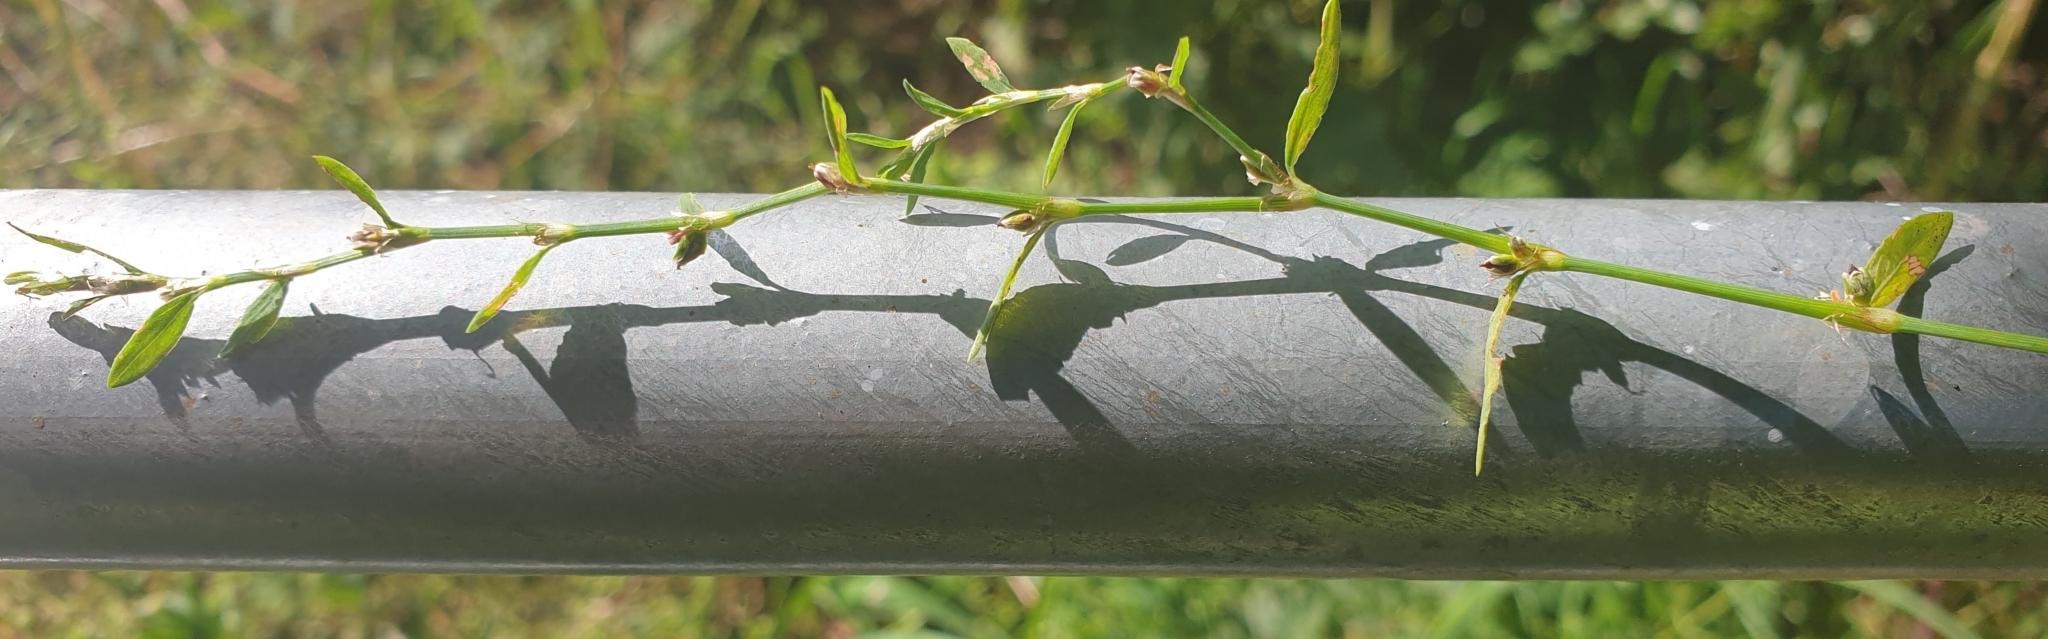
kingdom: Plantae
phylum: Tracheophyta
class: Magnoliopsida
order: Caryophyllales
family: Polygonaceae
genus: Polygonum
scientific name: Polygonum aviculare
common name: Prostrate knotweed
